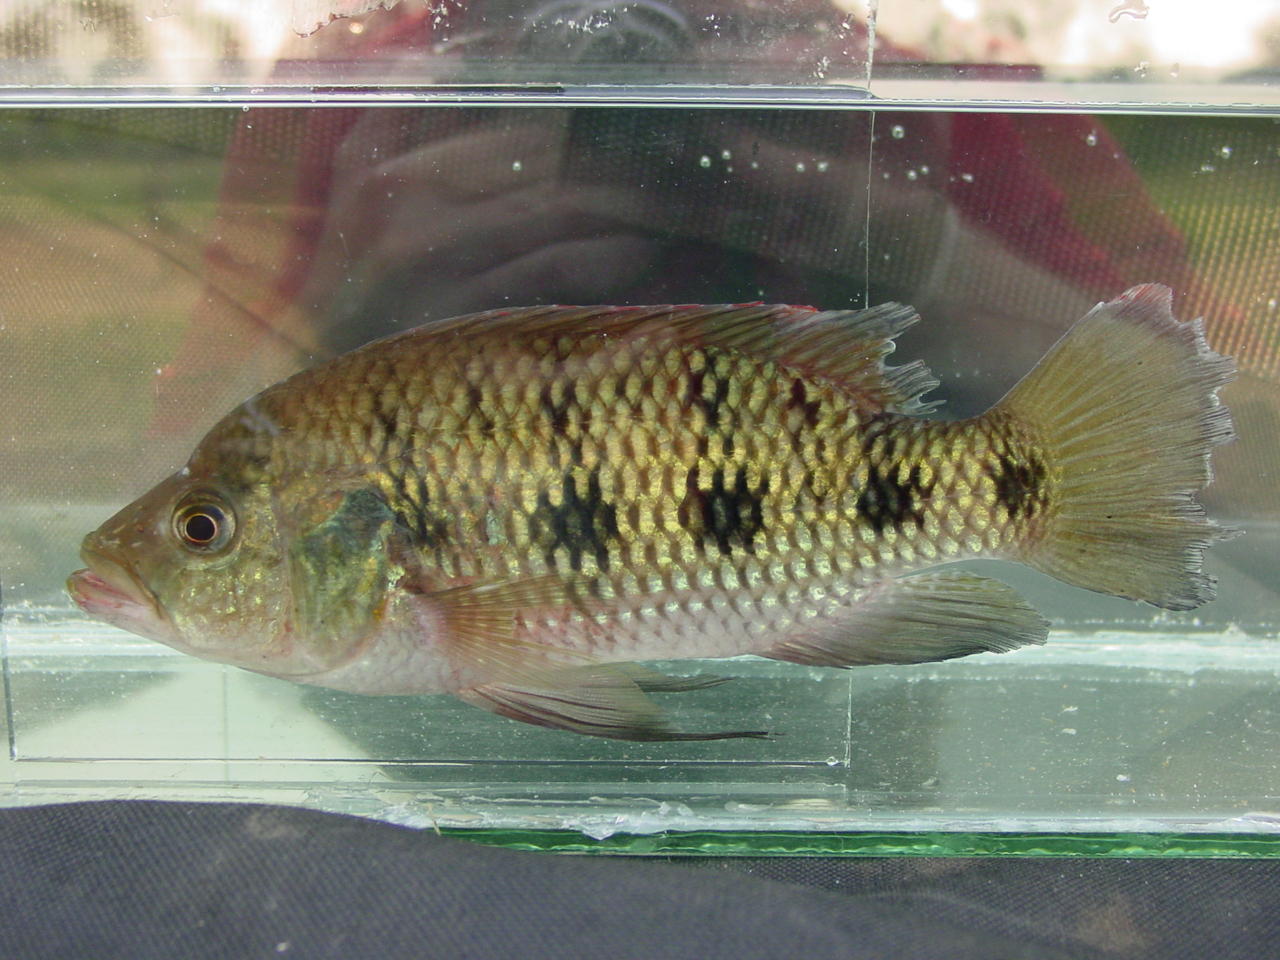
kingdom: Animalia
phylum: Chordata
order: Perciformes
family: Cichlidae
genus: Hemichromis
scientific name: Hemichromis elongatus
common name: Jewel cichlid
